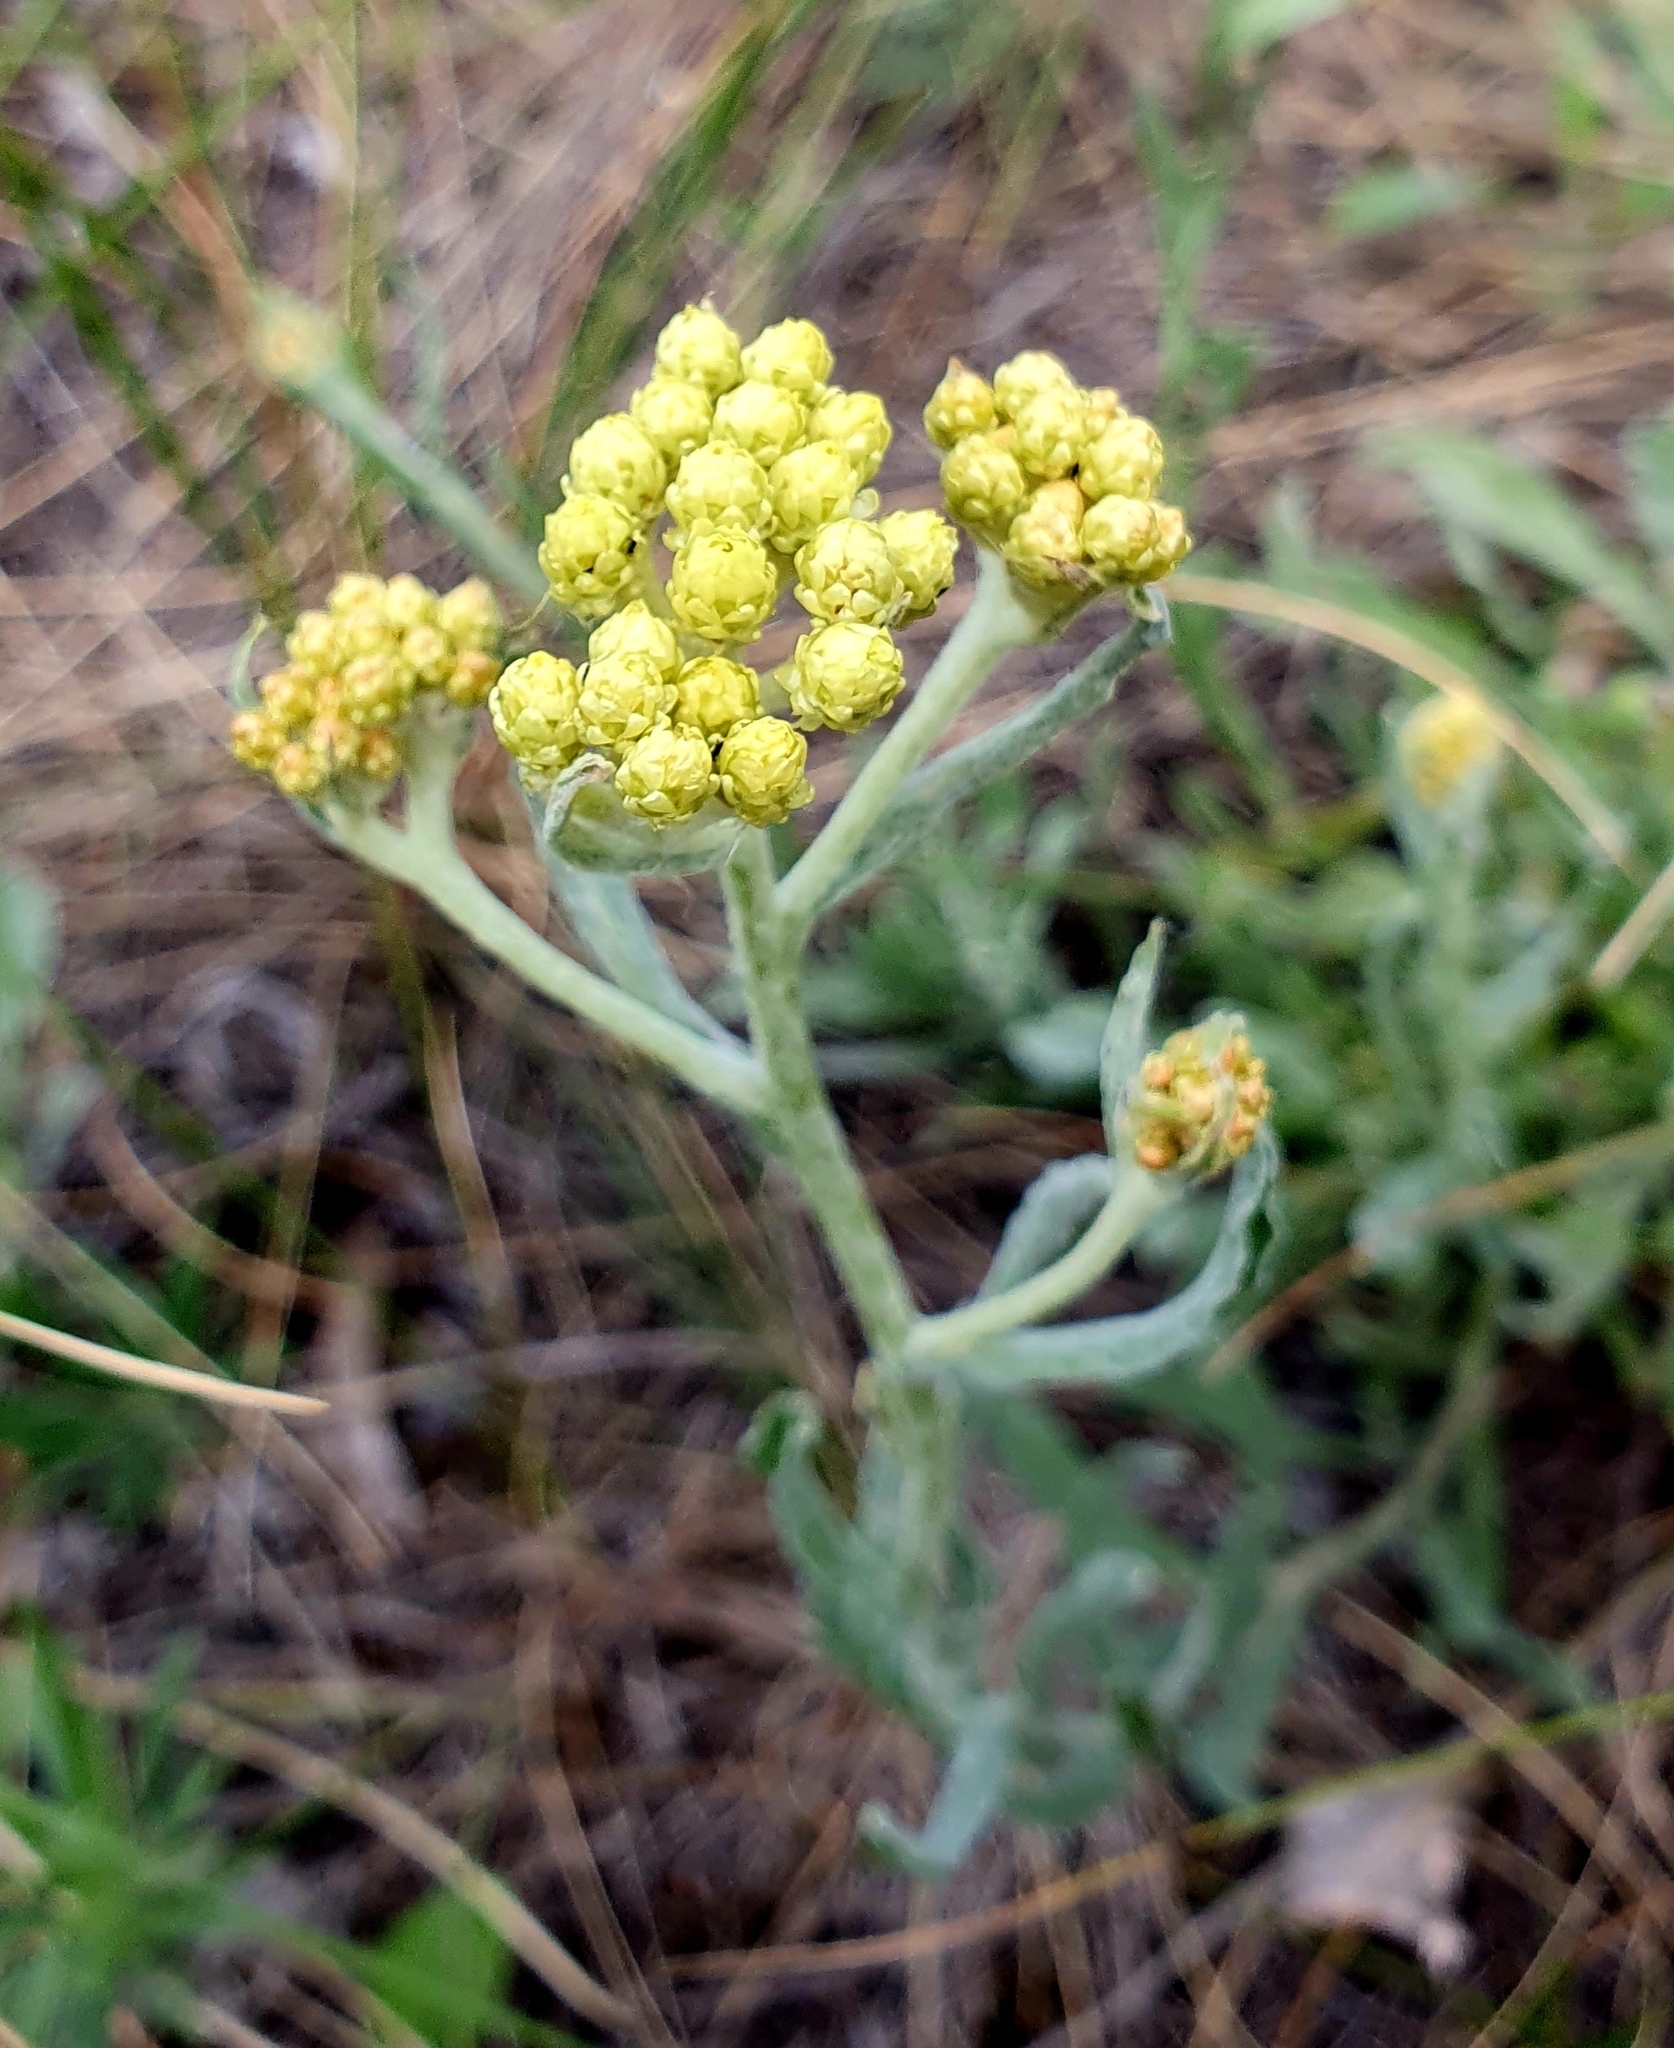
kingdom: Plantae
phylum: Tracheophyta
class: Magnoliopsida
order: Asterales
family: Asteraceae
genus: Helichrysum
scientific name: Helichrysum arenarium
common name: Strawflower
